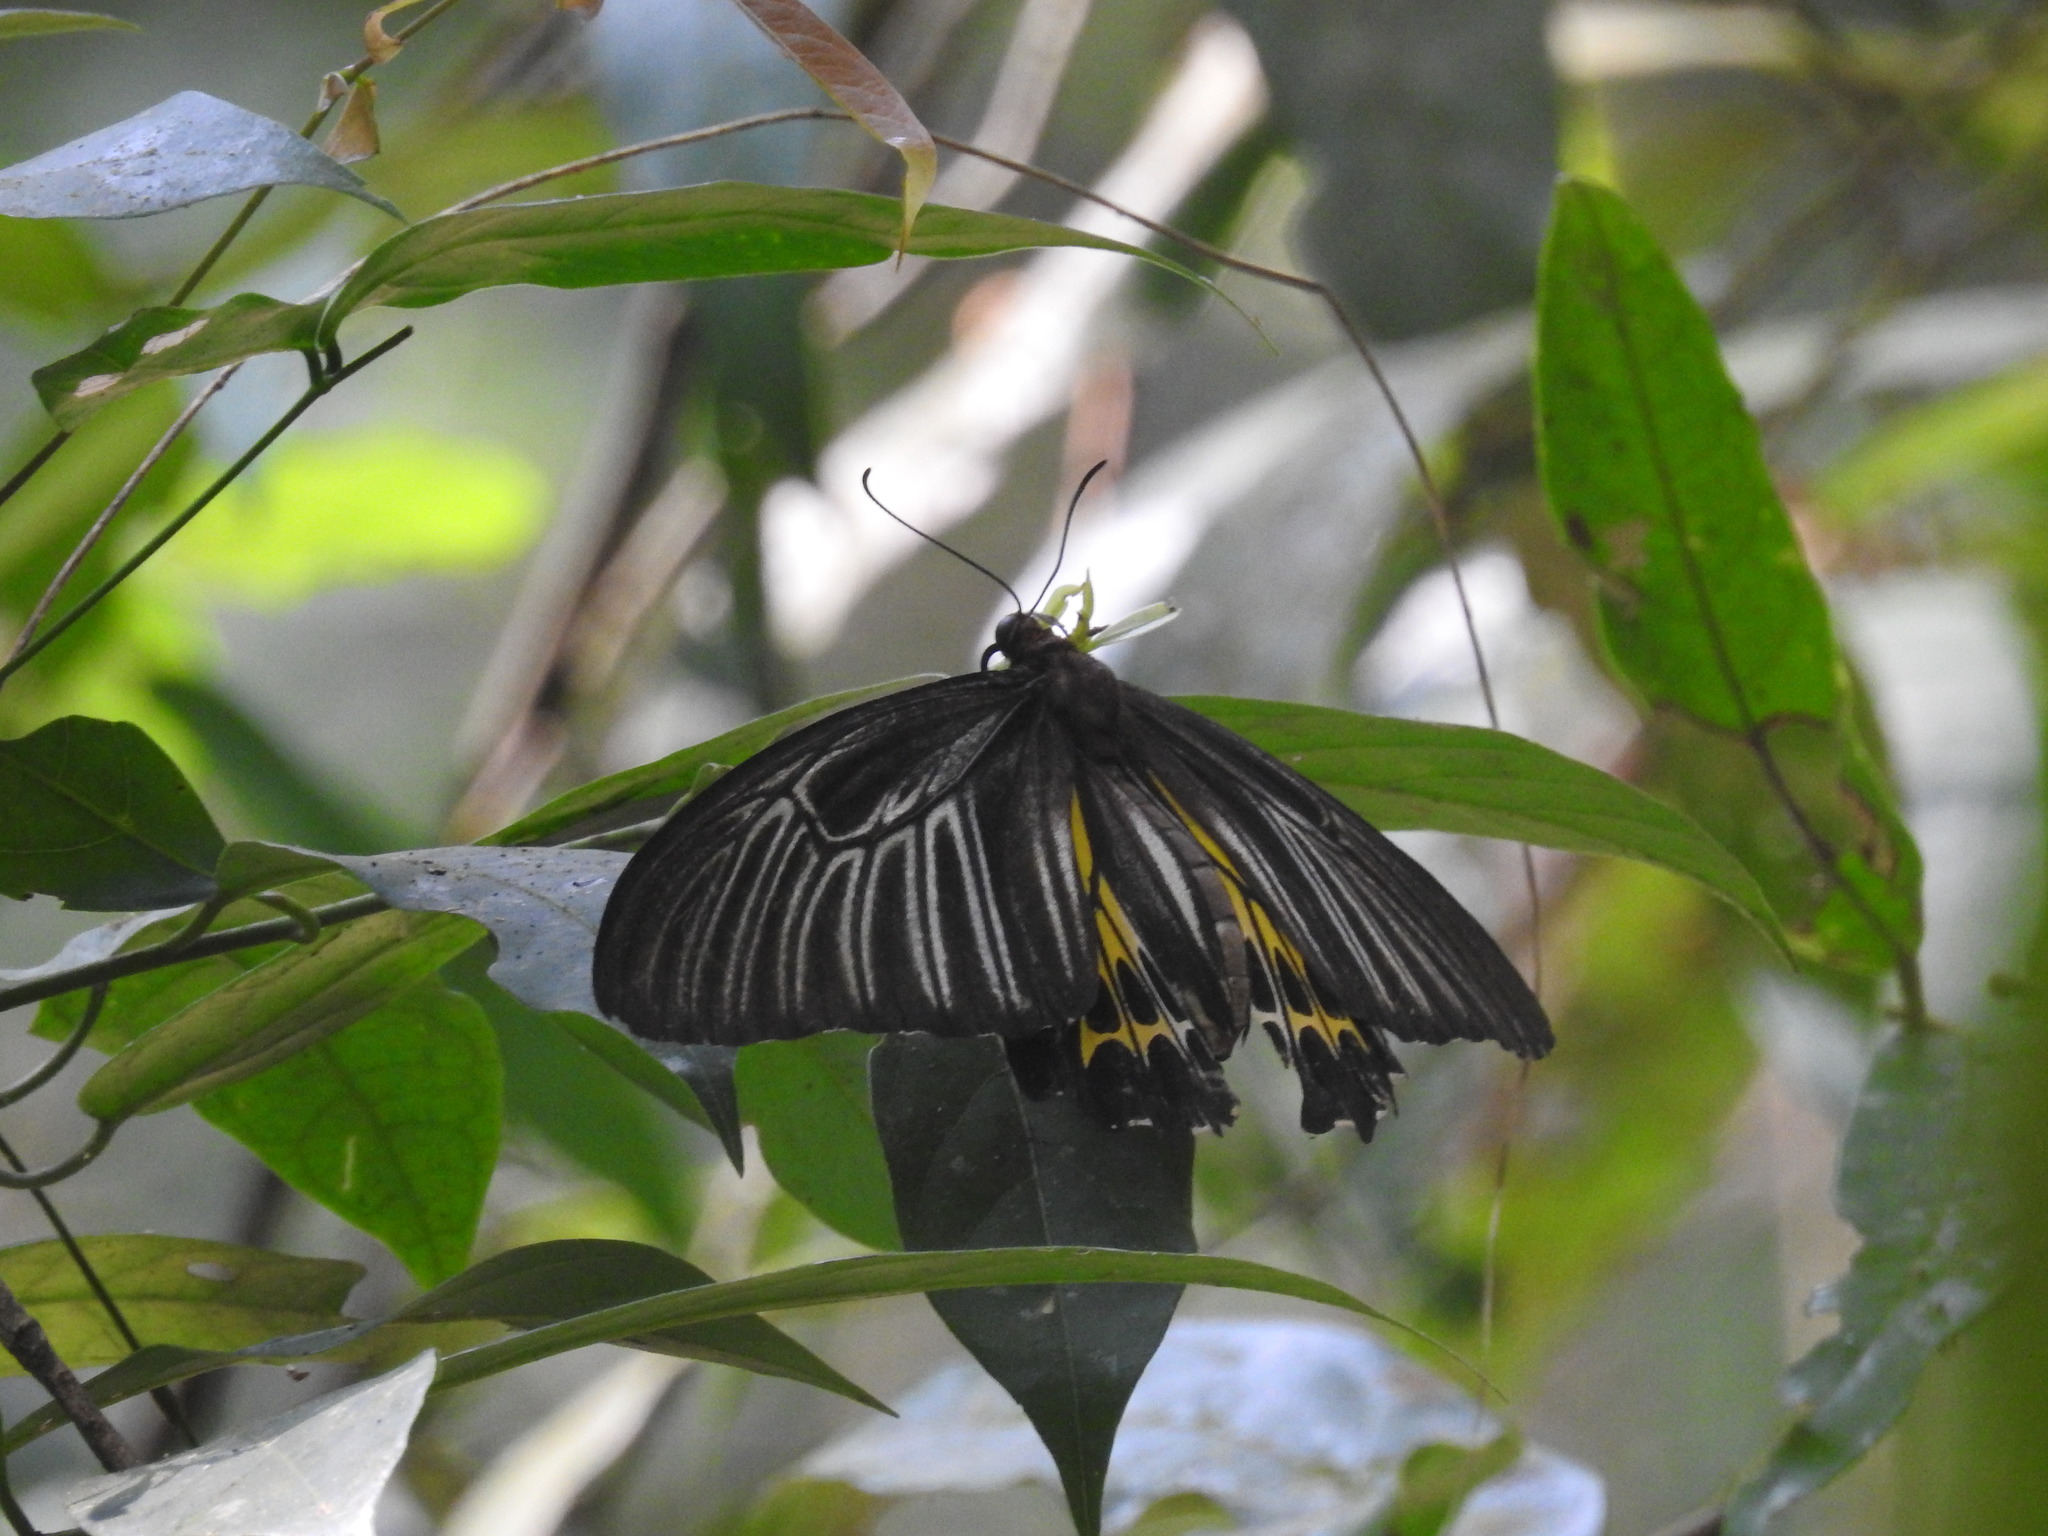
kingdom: Animalia
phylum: Arthropoda
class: Insecta
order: Lepidoptera
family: Papilionidae
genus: Troides
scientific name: Troides minos
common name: Malabar birdwing
